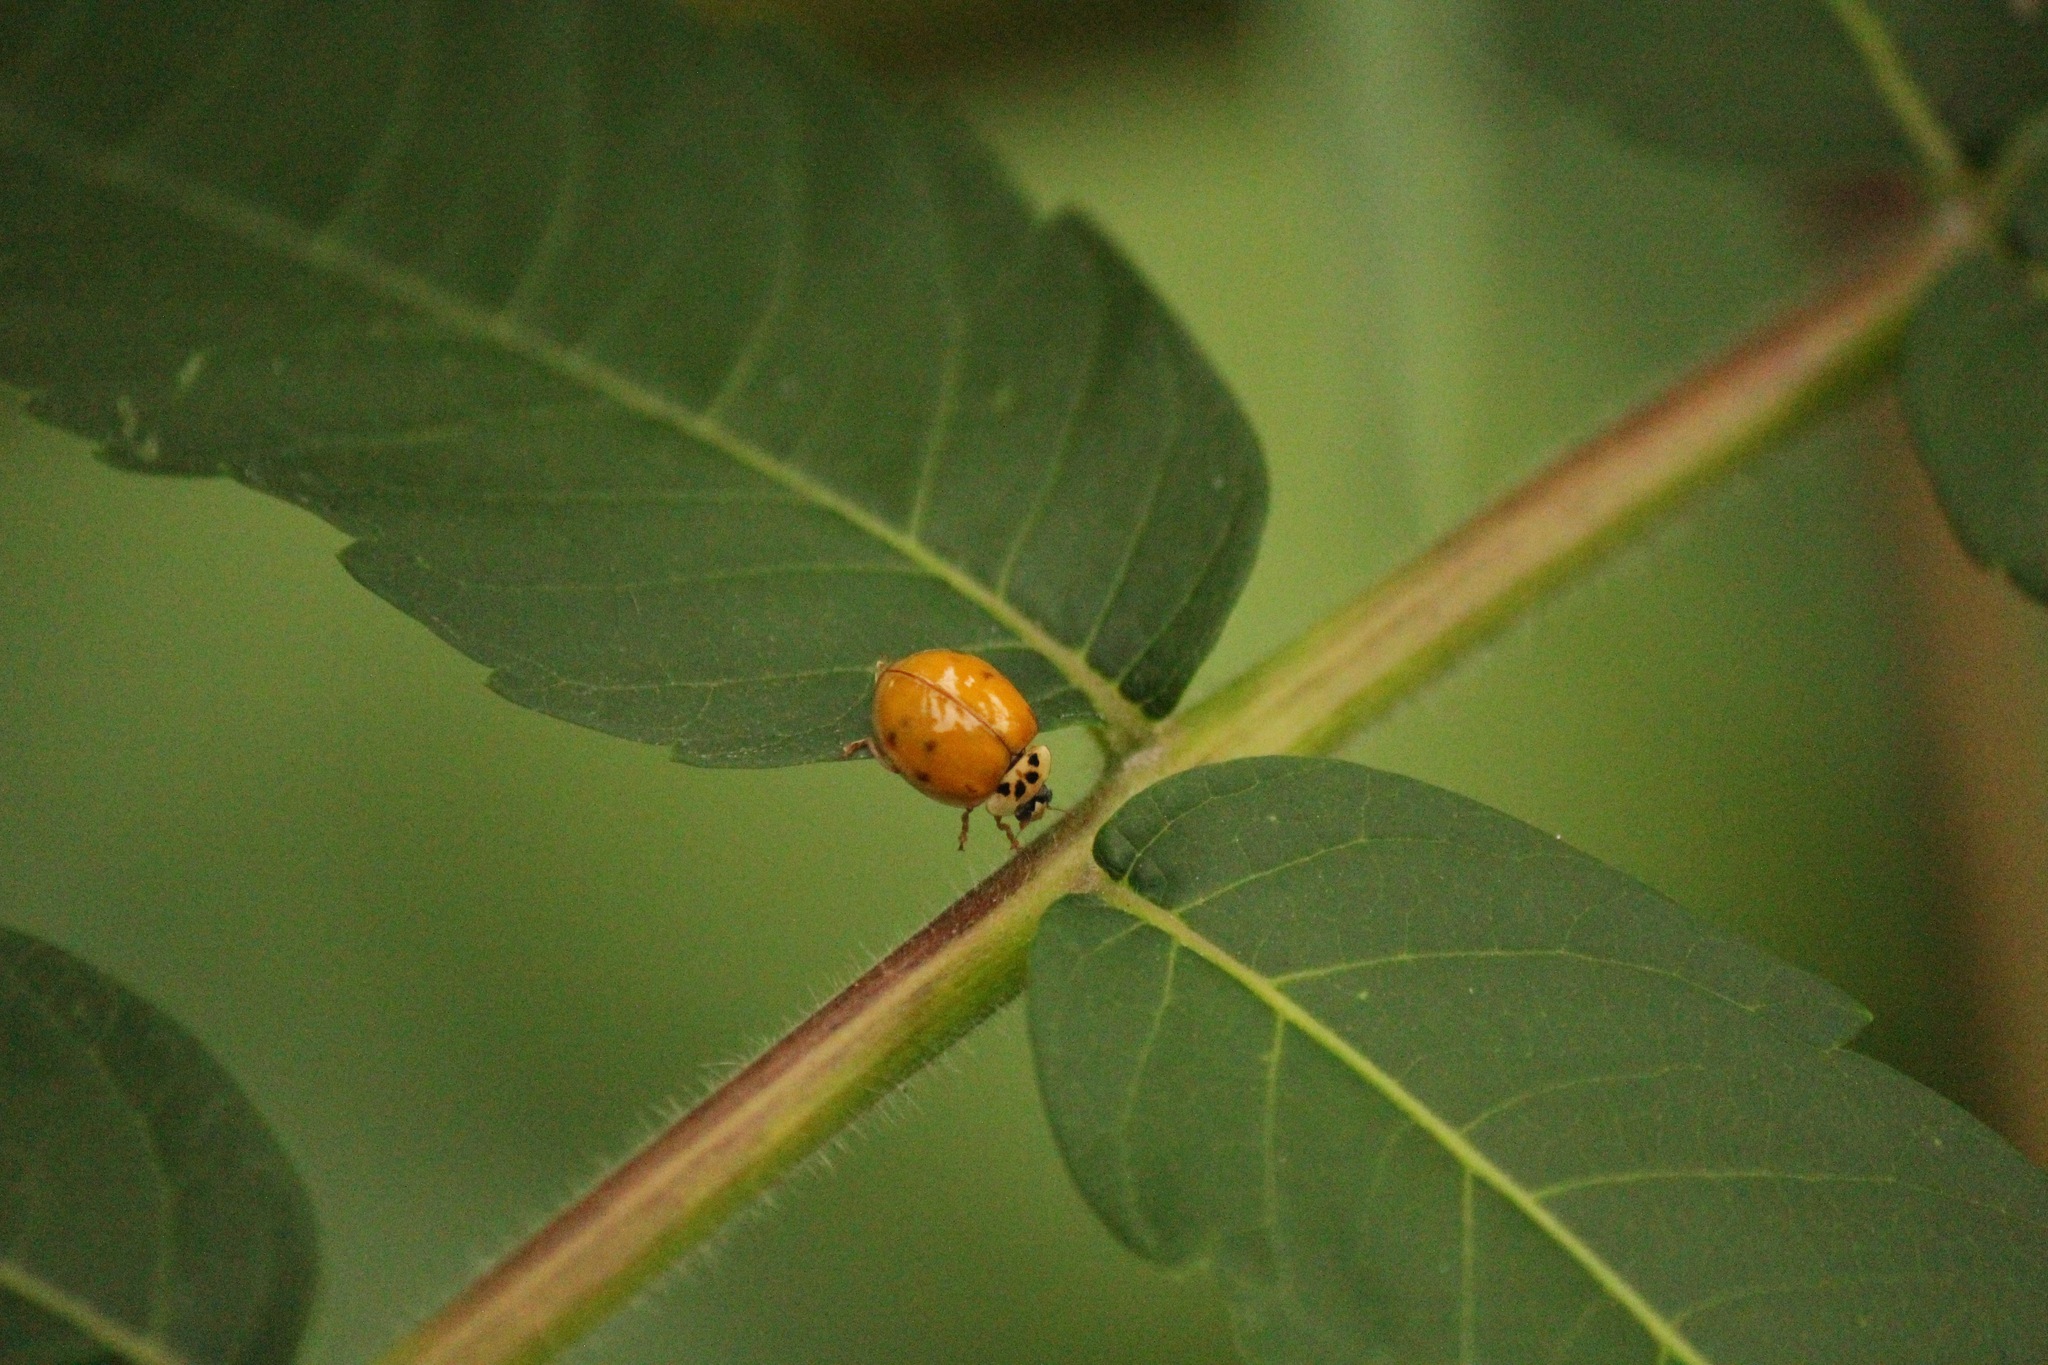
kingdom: Animalia
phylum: Arthropoda
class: Insecta
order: Coleoptera
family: Coccinellidae
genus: Harmonia
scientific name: Harmonia axyridis
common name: Harlequin ladybird
